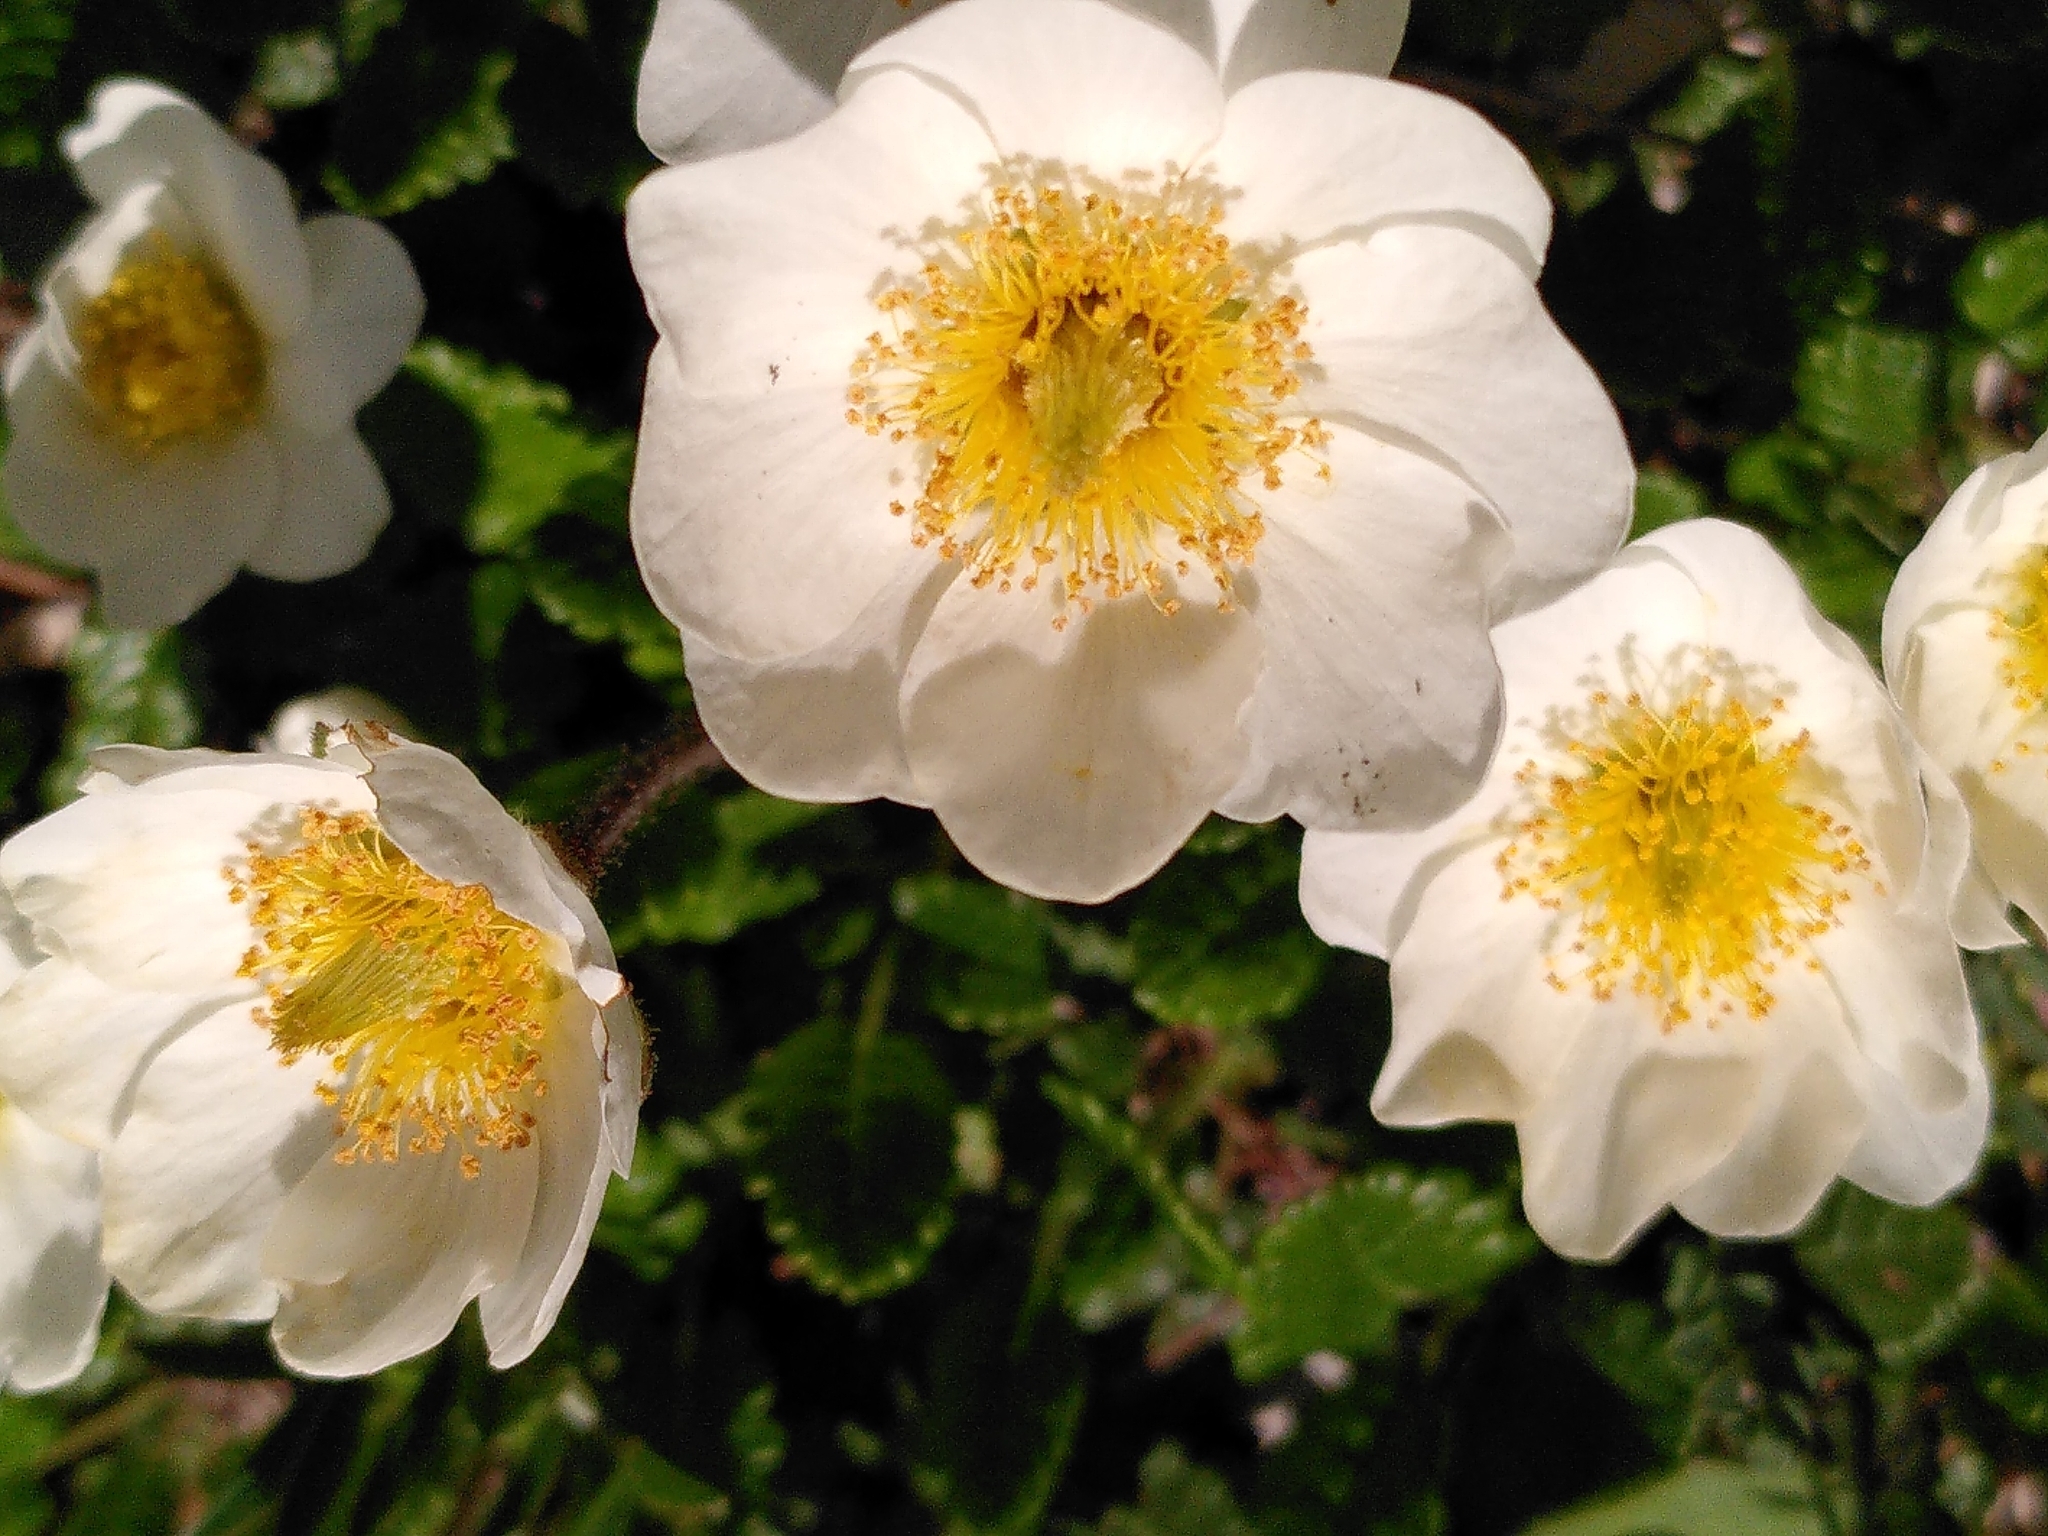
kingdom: Plantae
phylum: Tracheophyta
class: Magnoliopsida
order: Rosales
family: Rosaceae
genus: Dryas
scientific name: Dryas octopetala
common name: Eight-petal mountain-avens
